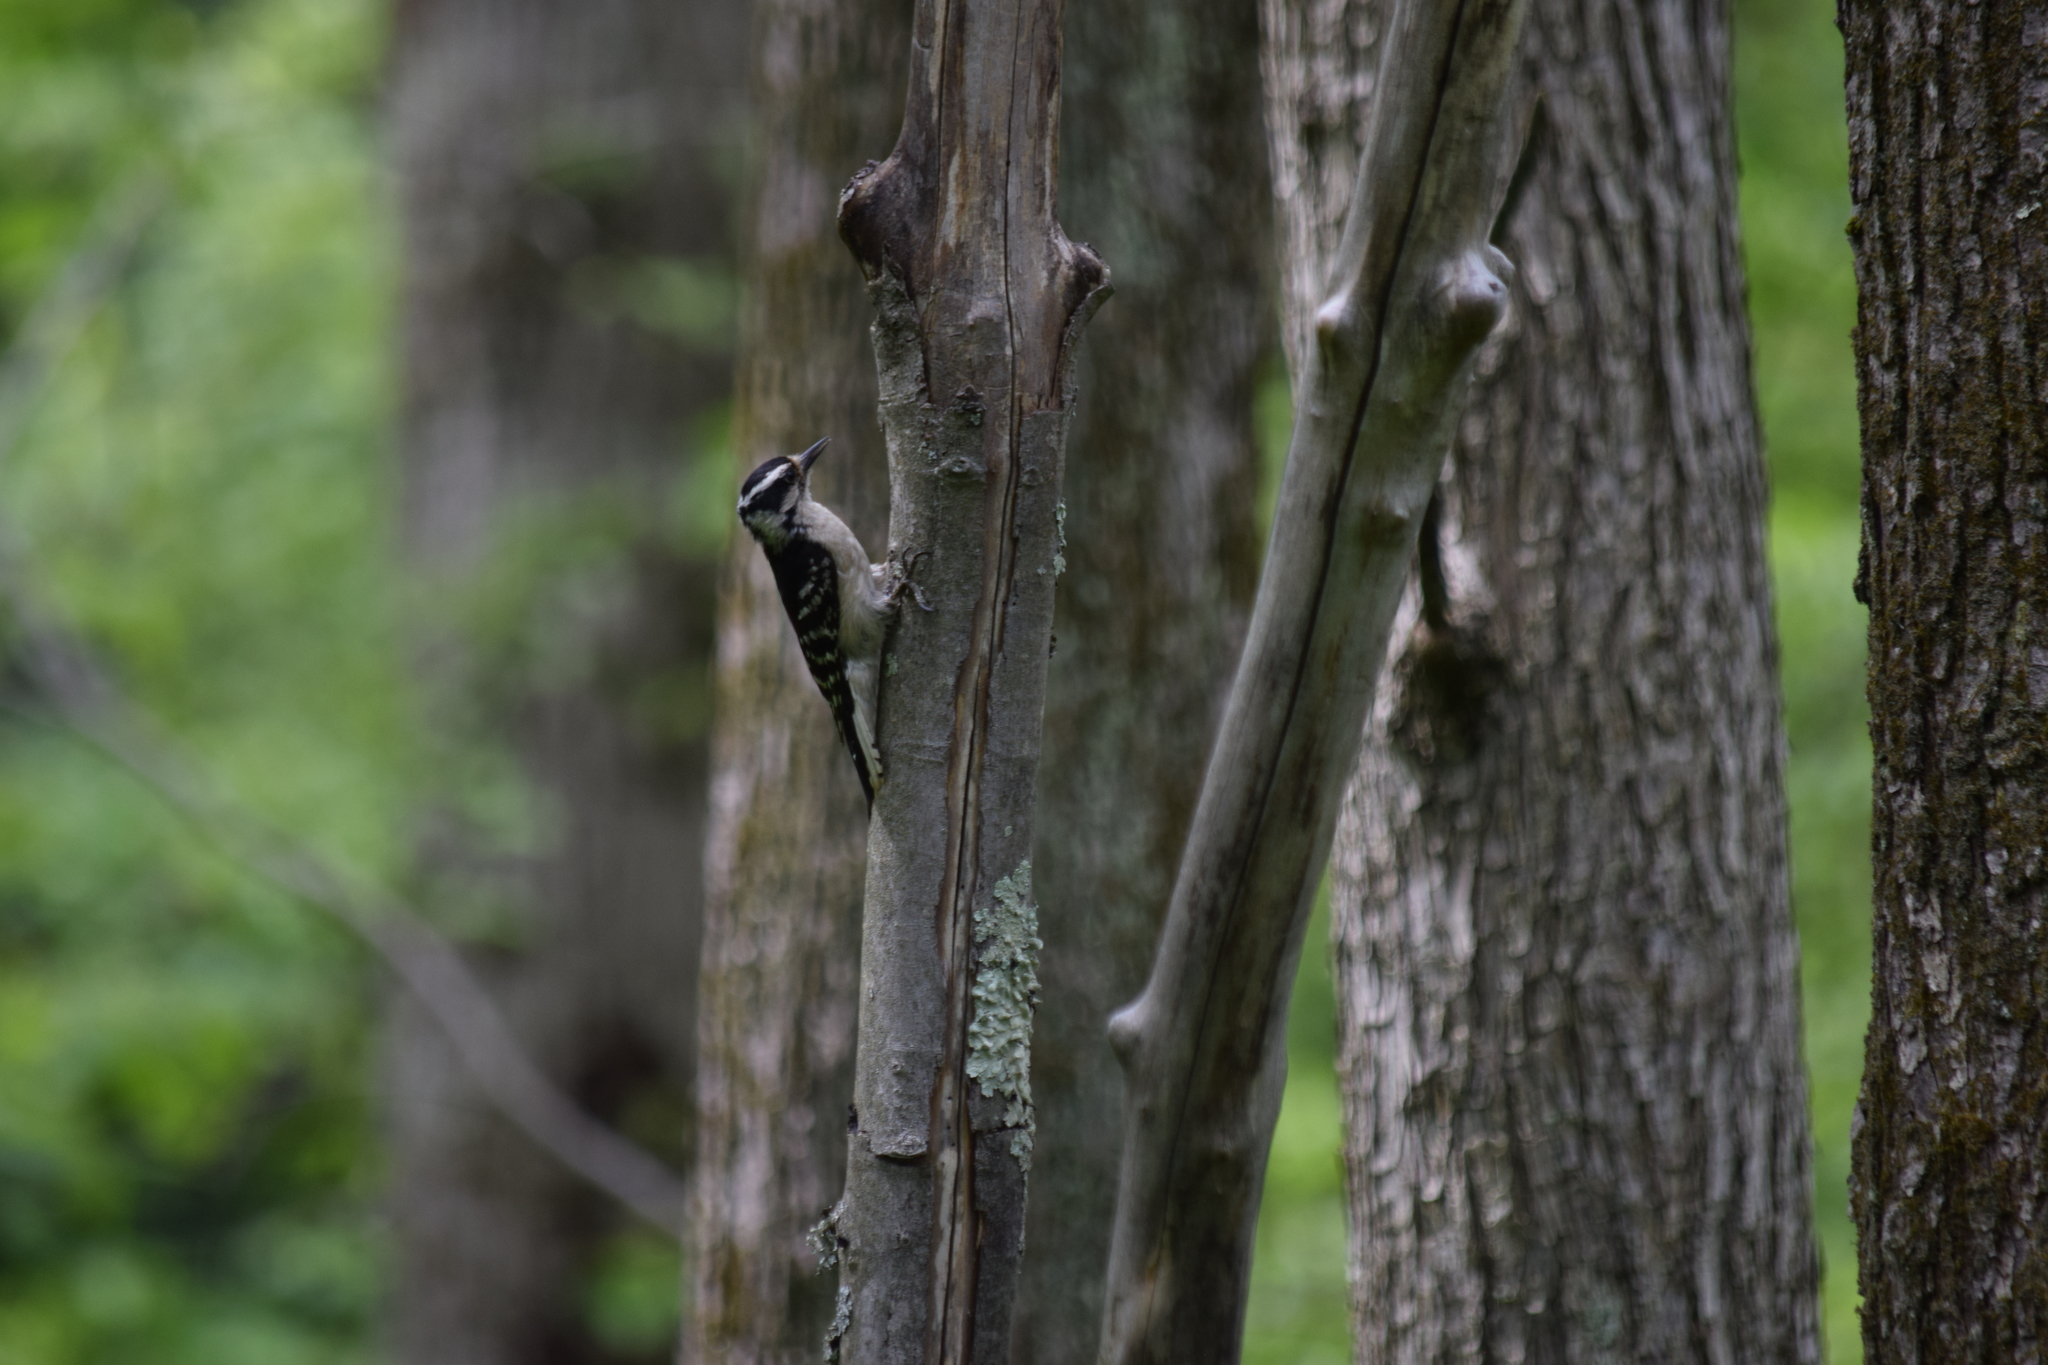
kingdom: Animalia
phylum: Chordata
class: Aves
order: Piciformes
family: Picidae
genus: Dryobates
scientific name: Dryobates pubescens
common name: Downy woodpecker
